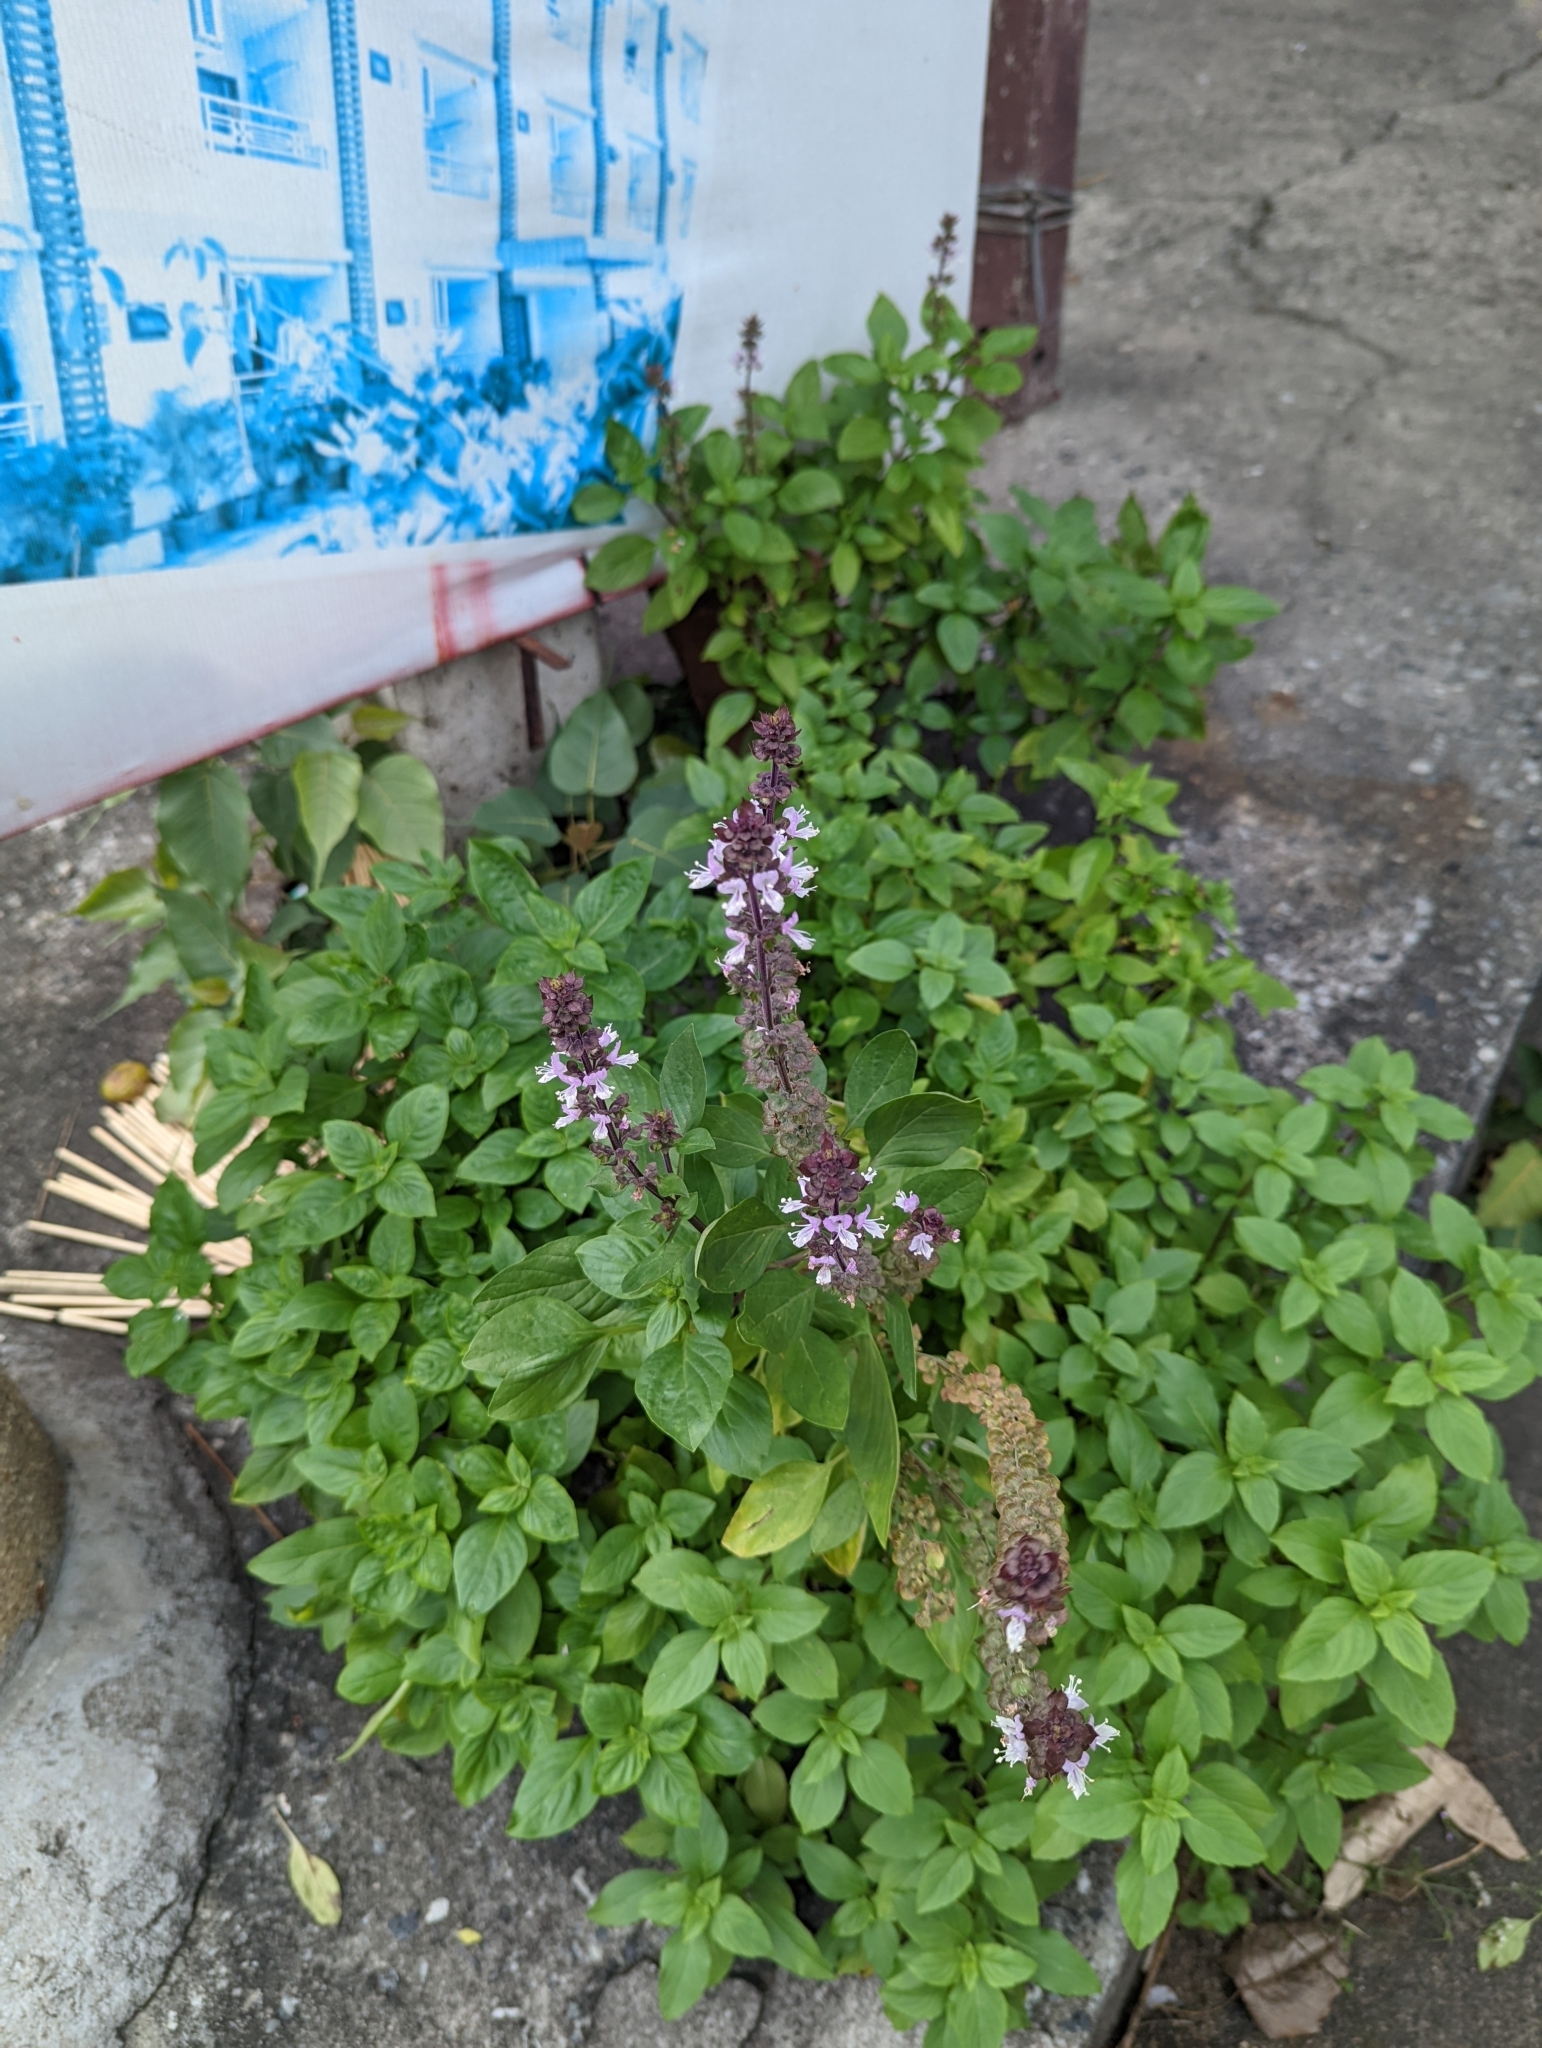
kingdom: Plantae
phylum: Tracheophyta
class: Magnoliopsida
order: Lamiales
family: Lamiaceae
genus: Ocimum
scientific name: Ocimum basilicum
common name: Sweet basil
